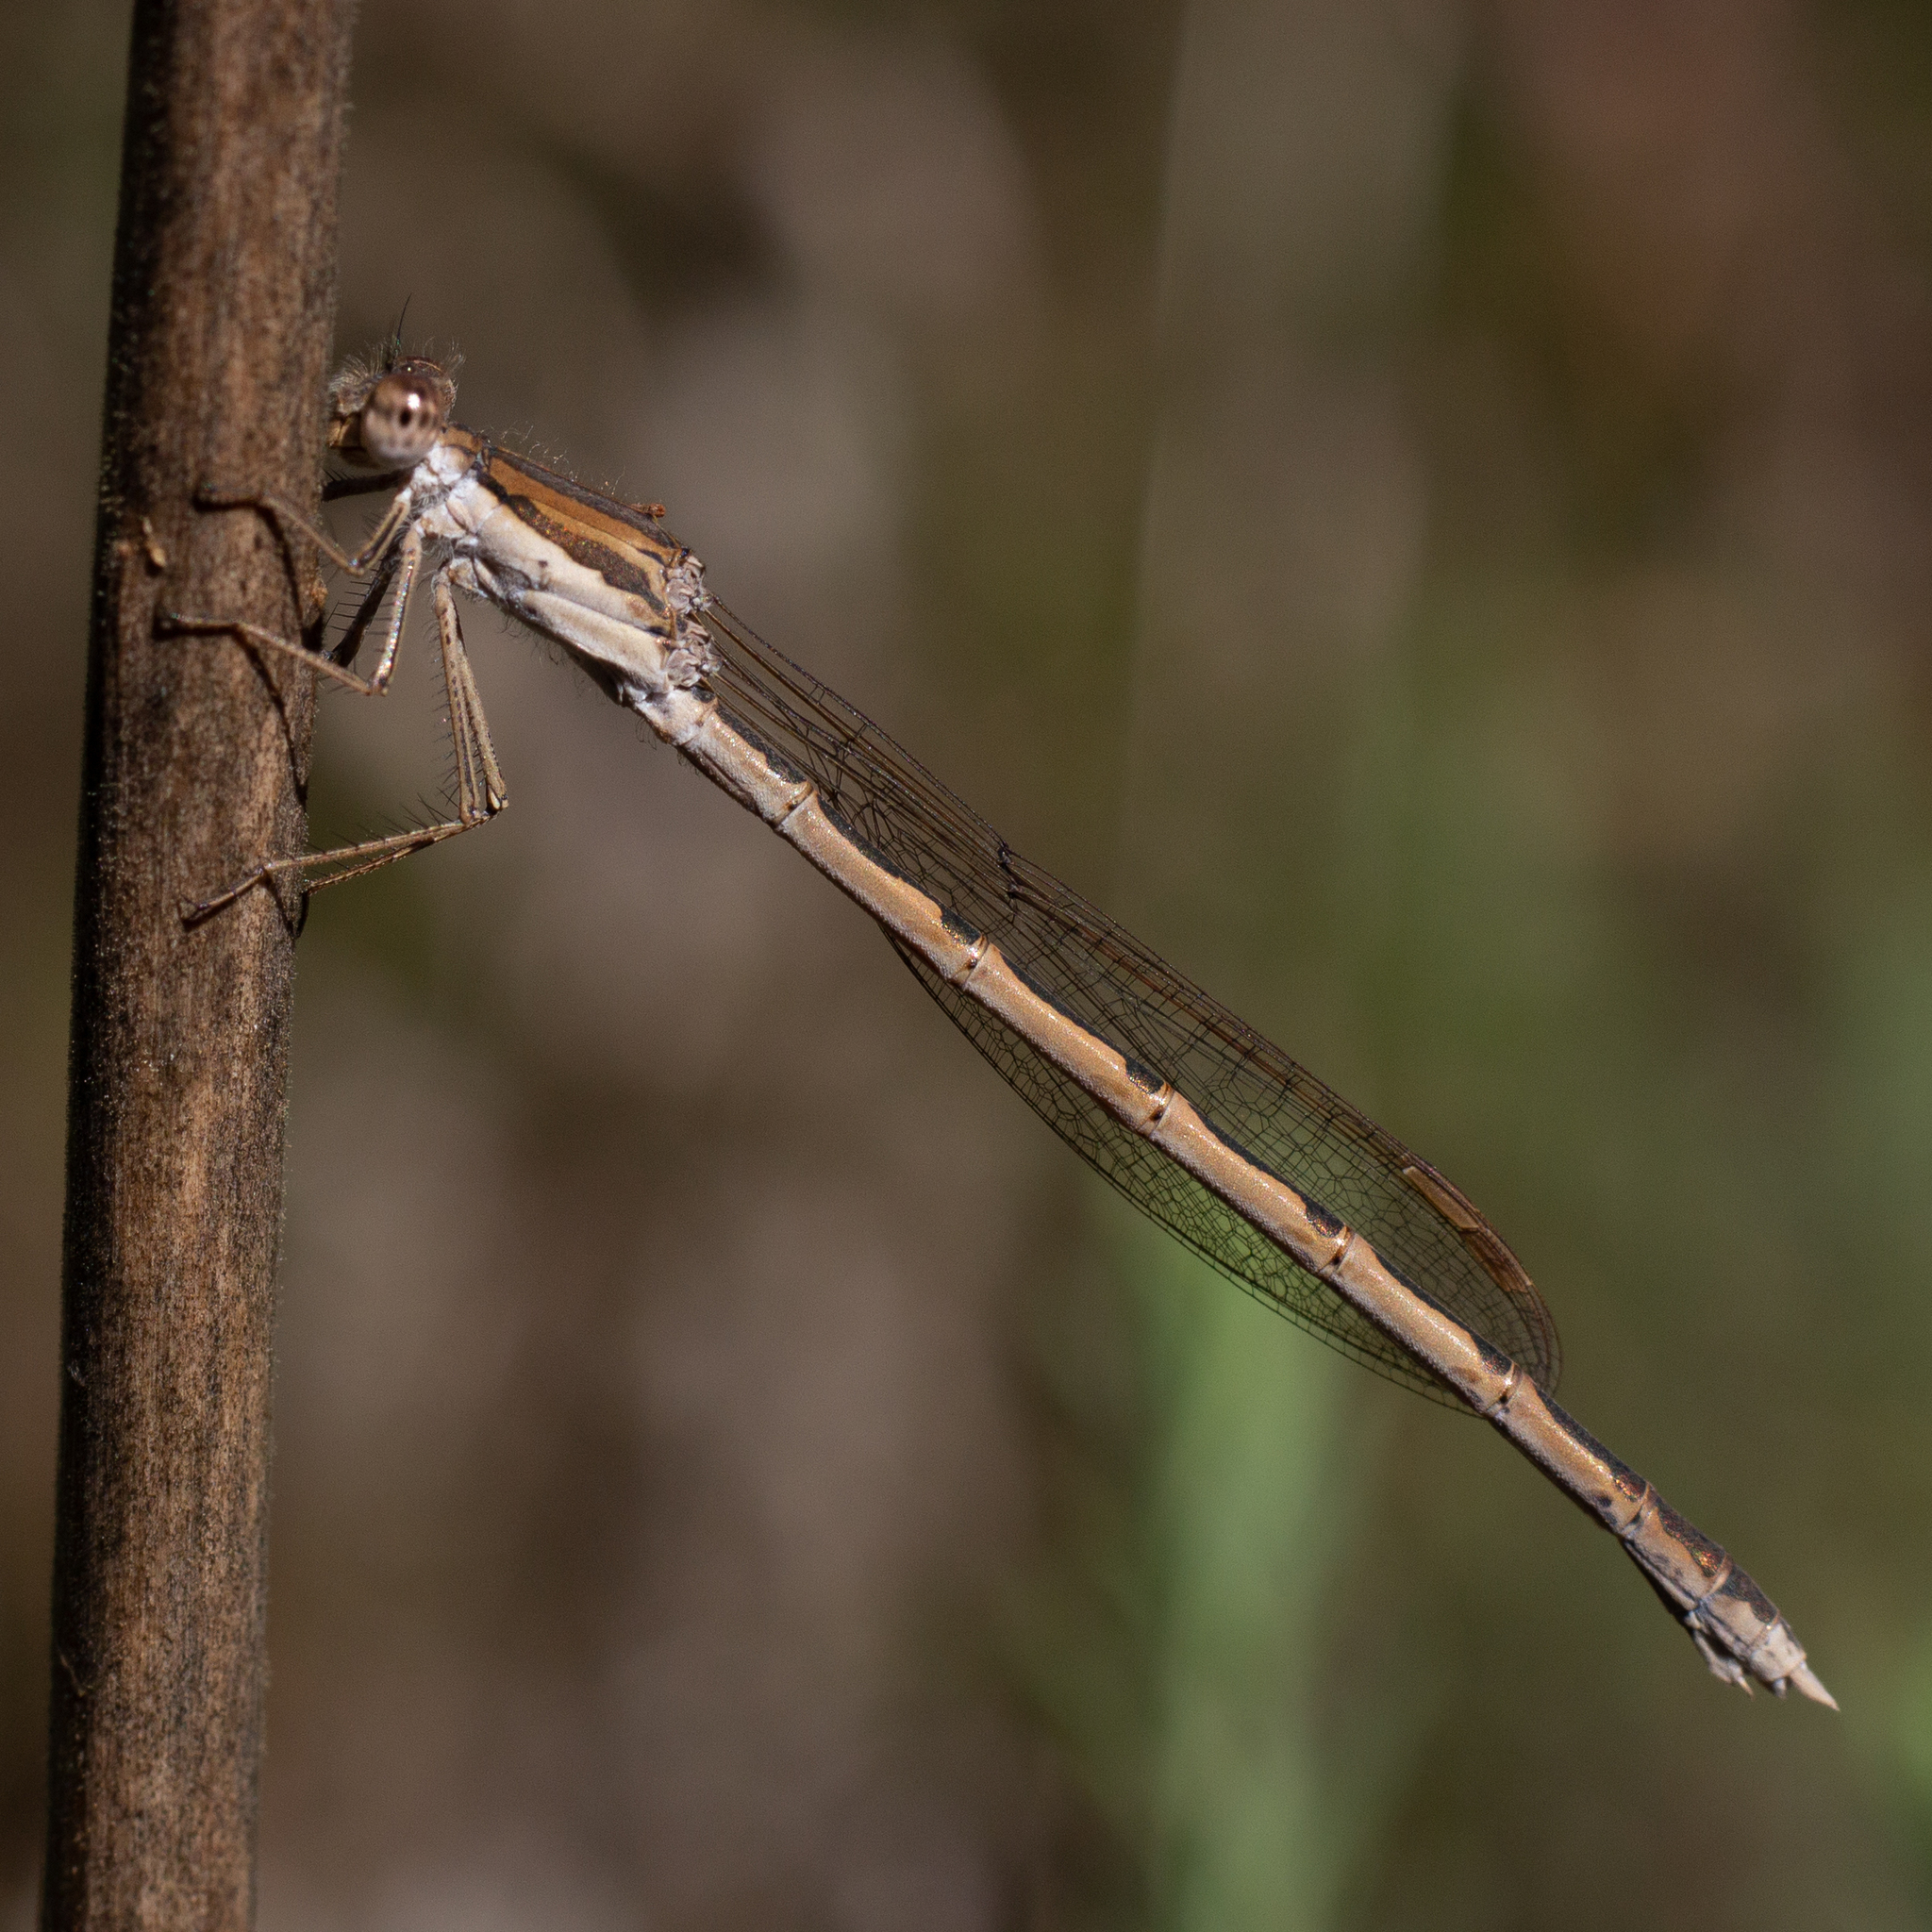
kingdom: Animalia
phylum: Arthropoda
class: Insecta
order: Odonata
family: Lestidae
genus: Sympecma
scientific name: Sympecma fusca
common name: Common winter damsel
